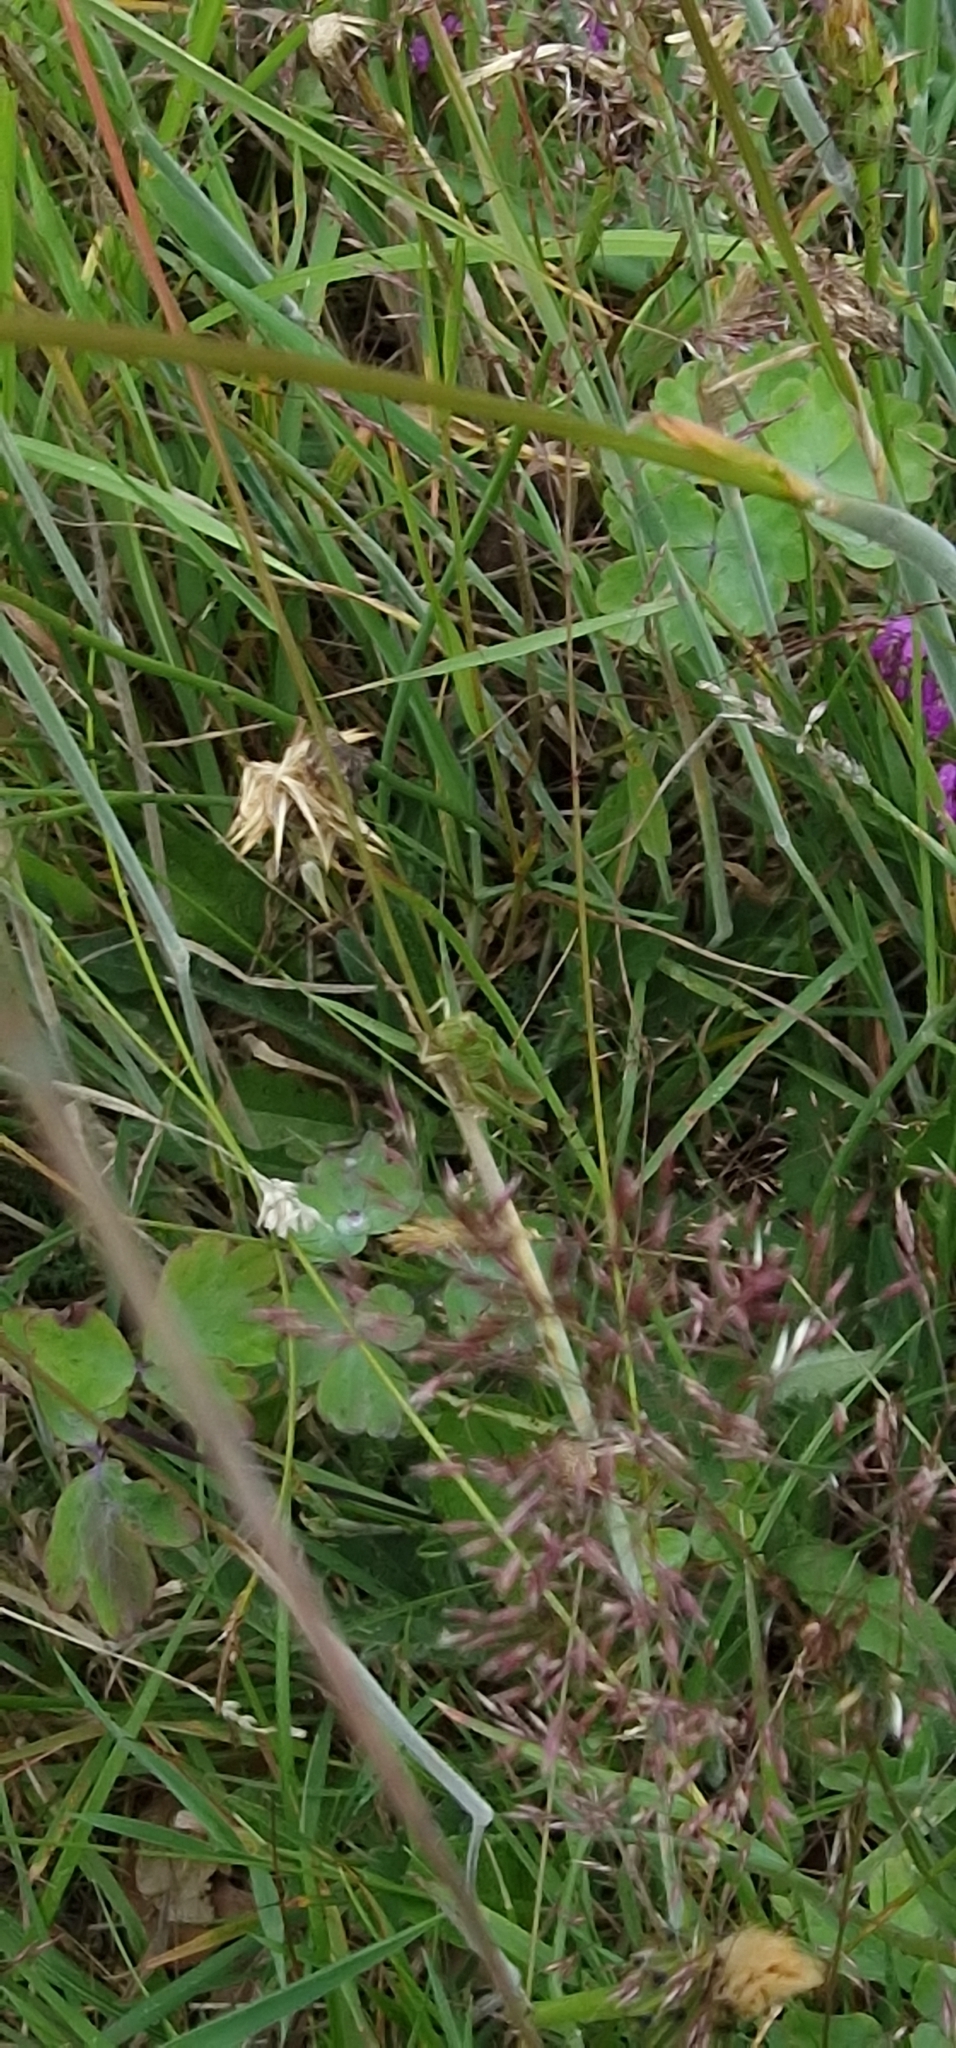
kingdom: Animalia
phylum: Arthropoda
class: Insecta
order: Orthoptera
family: Acrididae
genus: Omocestus
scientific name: Omocestus viridulus
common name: Common green grasshopper
